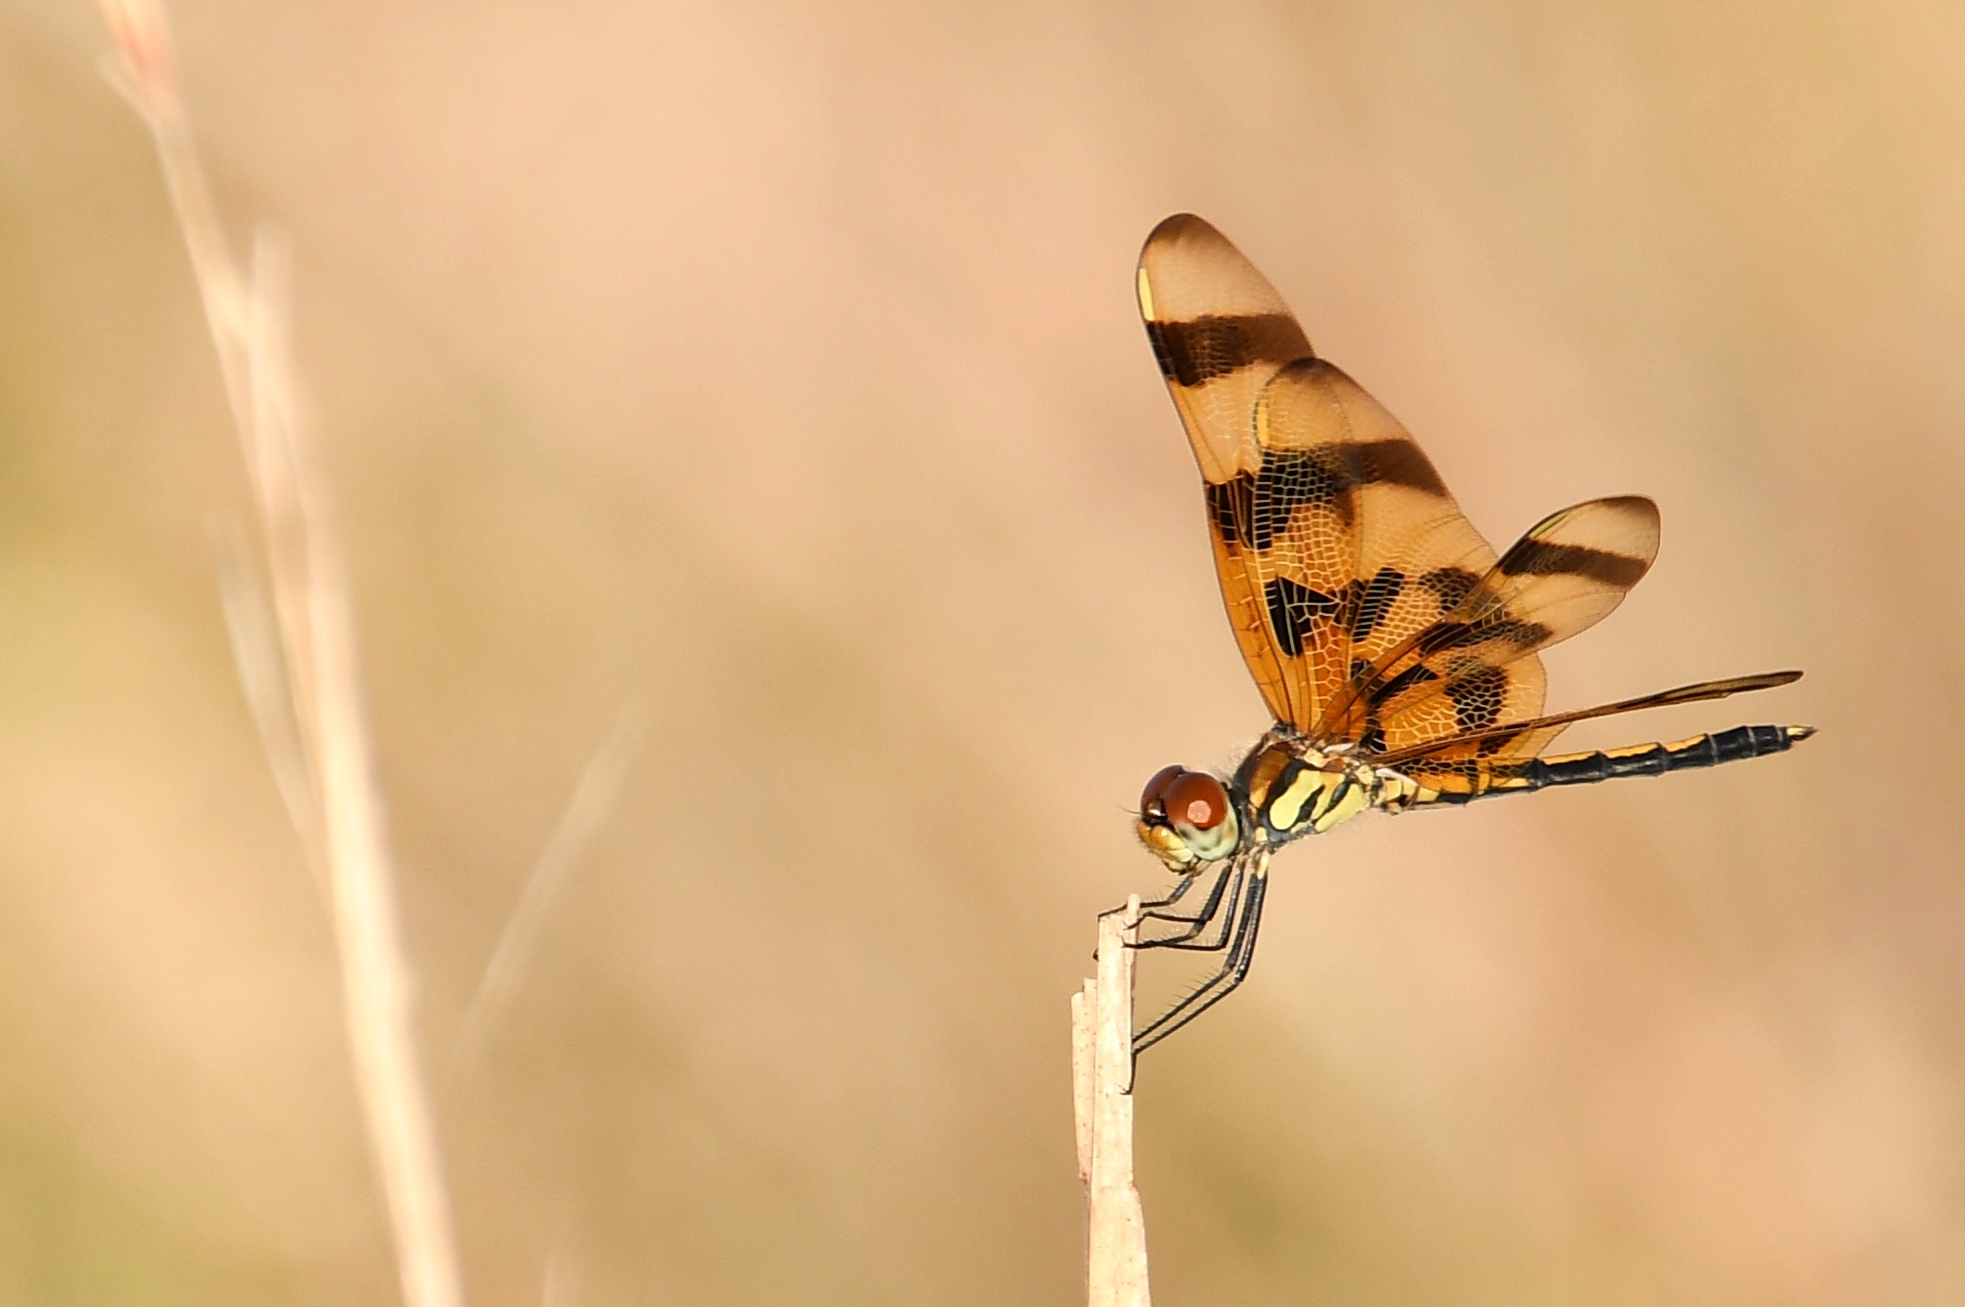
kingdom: Animalia
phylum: Arthropoda
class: Insecta
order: Odonata
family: Libellulidae
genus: Celithemis
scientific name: Celithemis eponina
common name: Halloween pennant
